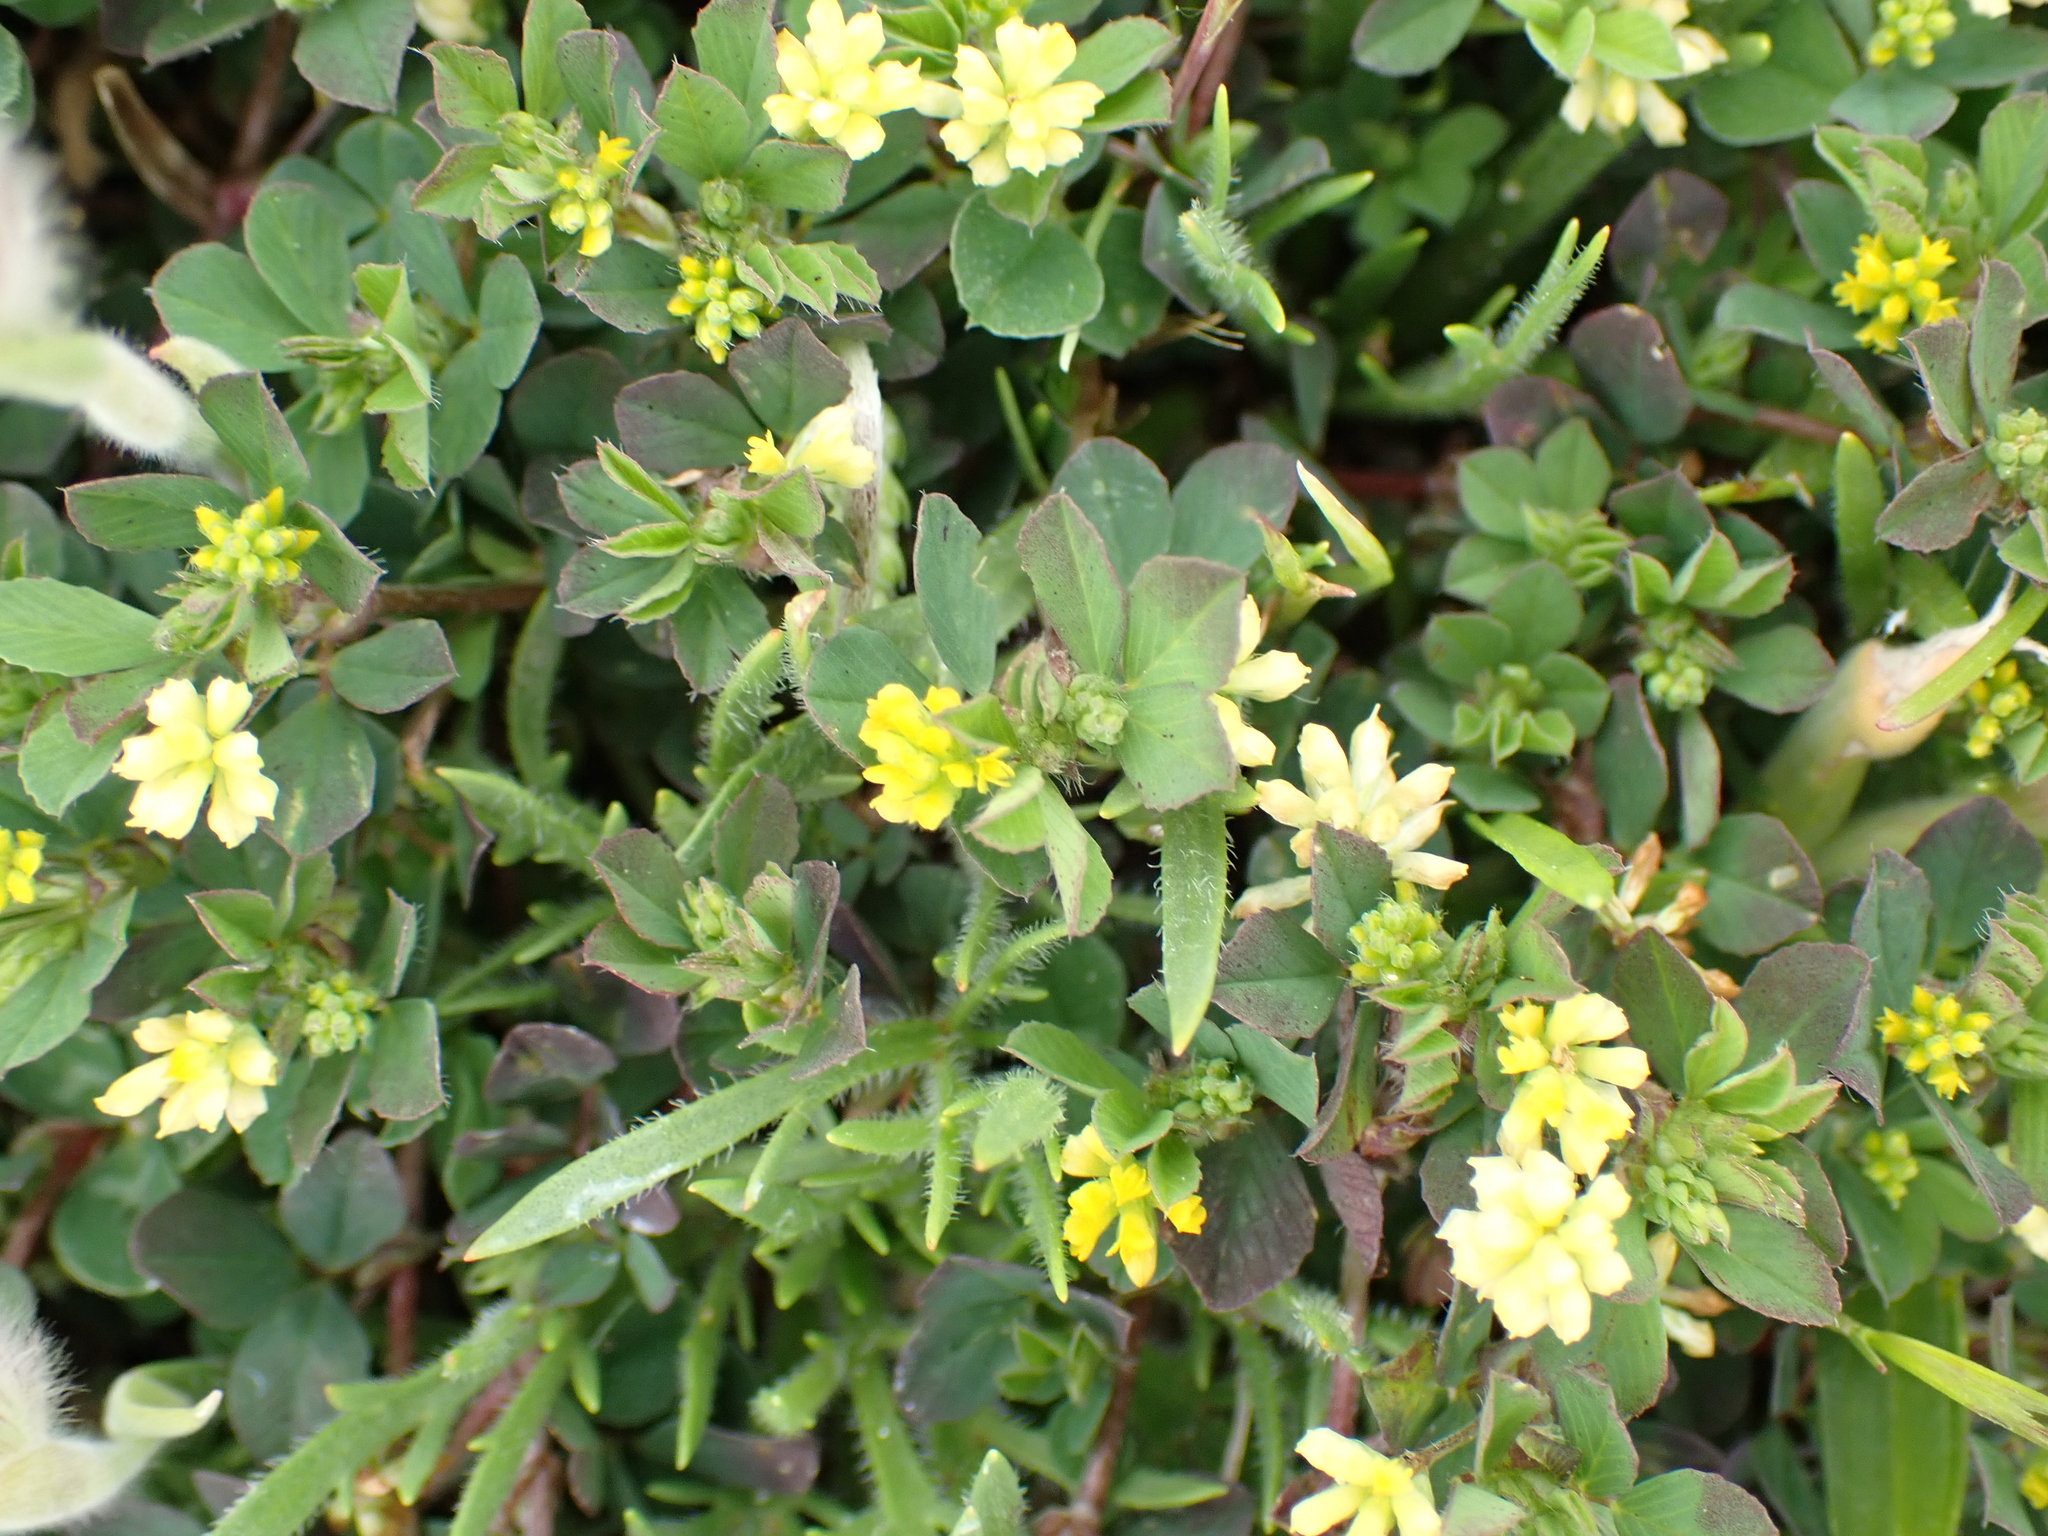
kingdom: Plantae
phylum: Tracheophyta
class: Magnoliopsida
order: Fabales
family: Fabaceae
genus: Trifolium
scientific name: Trifolium dubium
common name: Suckling clover
